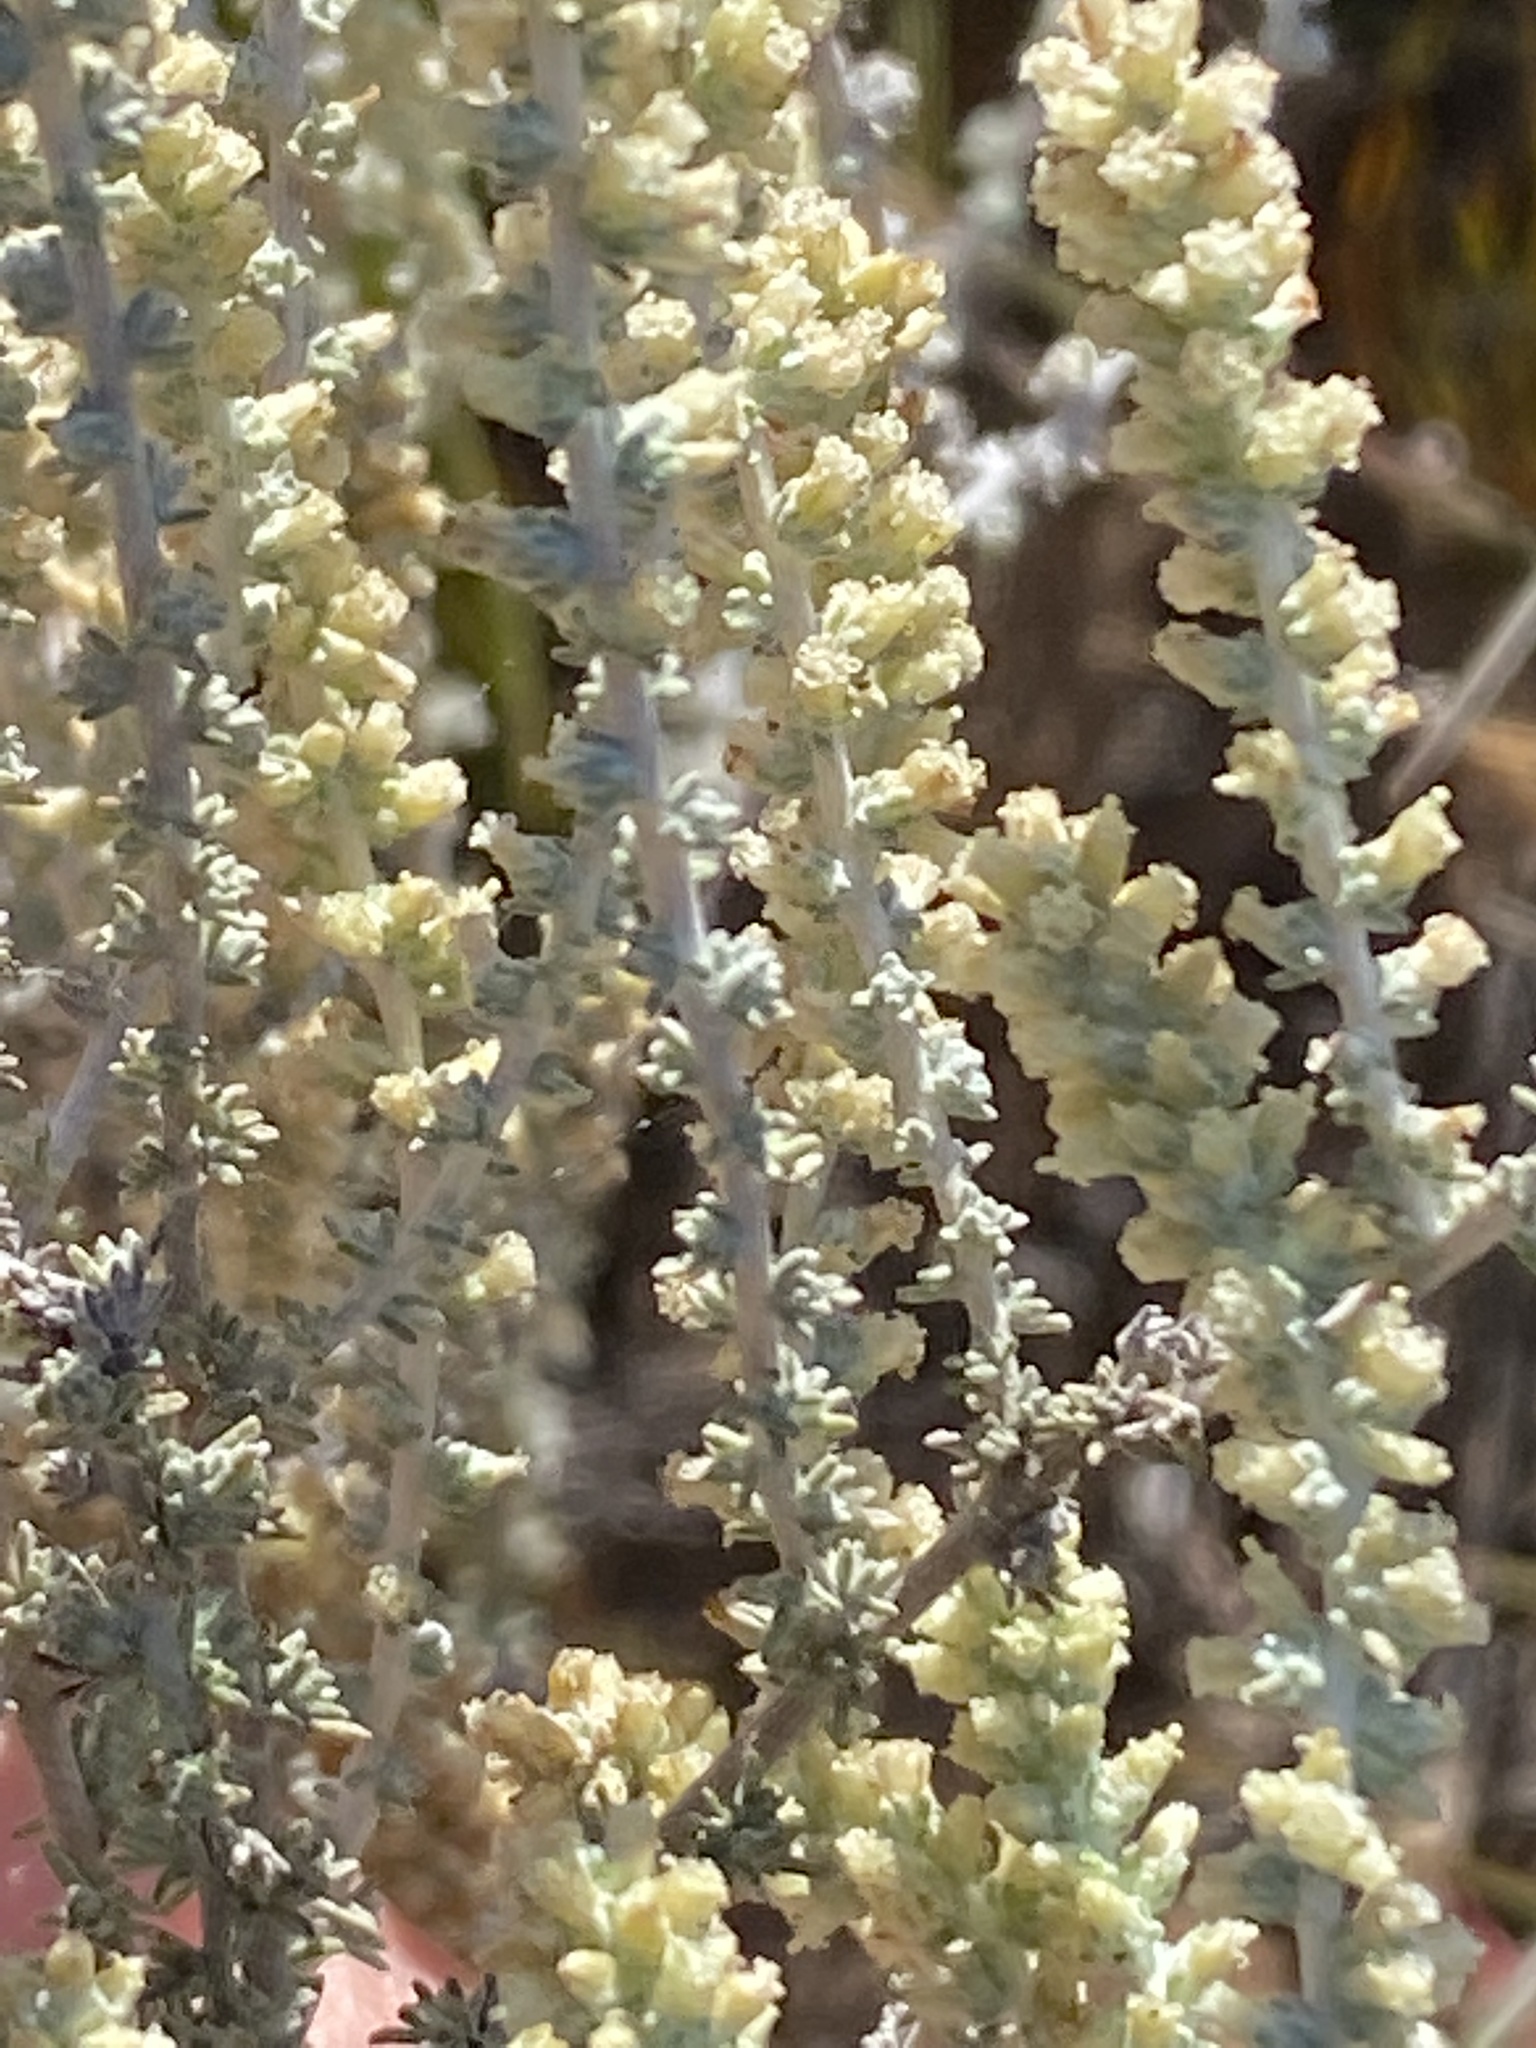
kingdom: Plantae
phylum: Tracheophyta
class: Magnoliopsida
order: Asterales
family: Asteraceae
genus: Seriphium
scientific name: Seriphium plumosum
